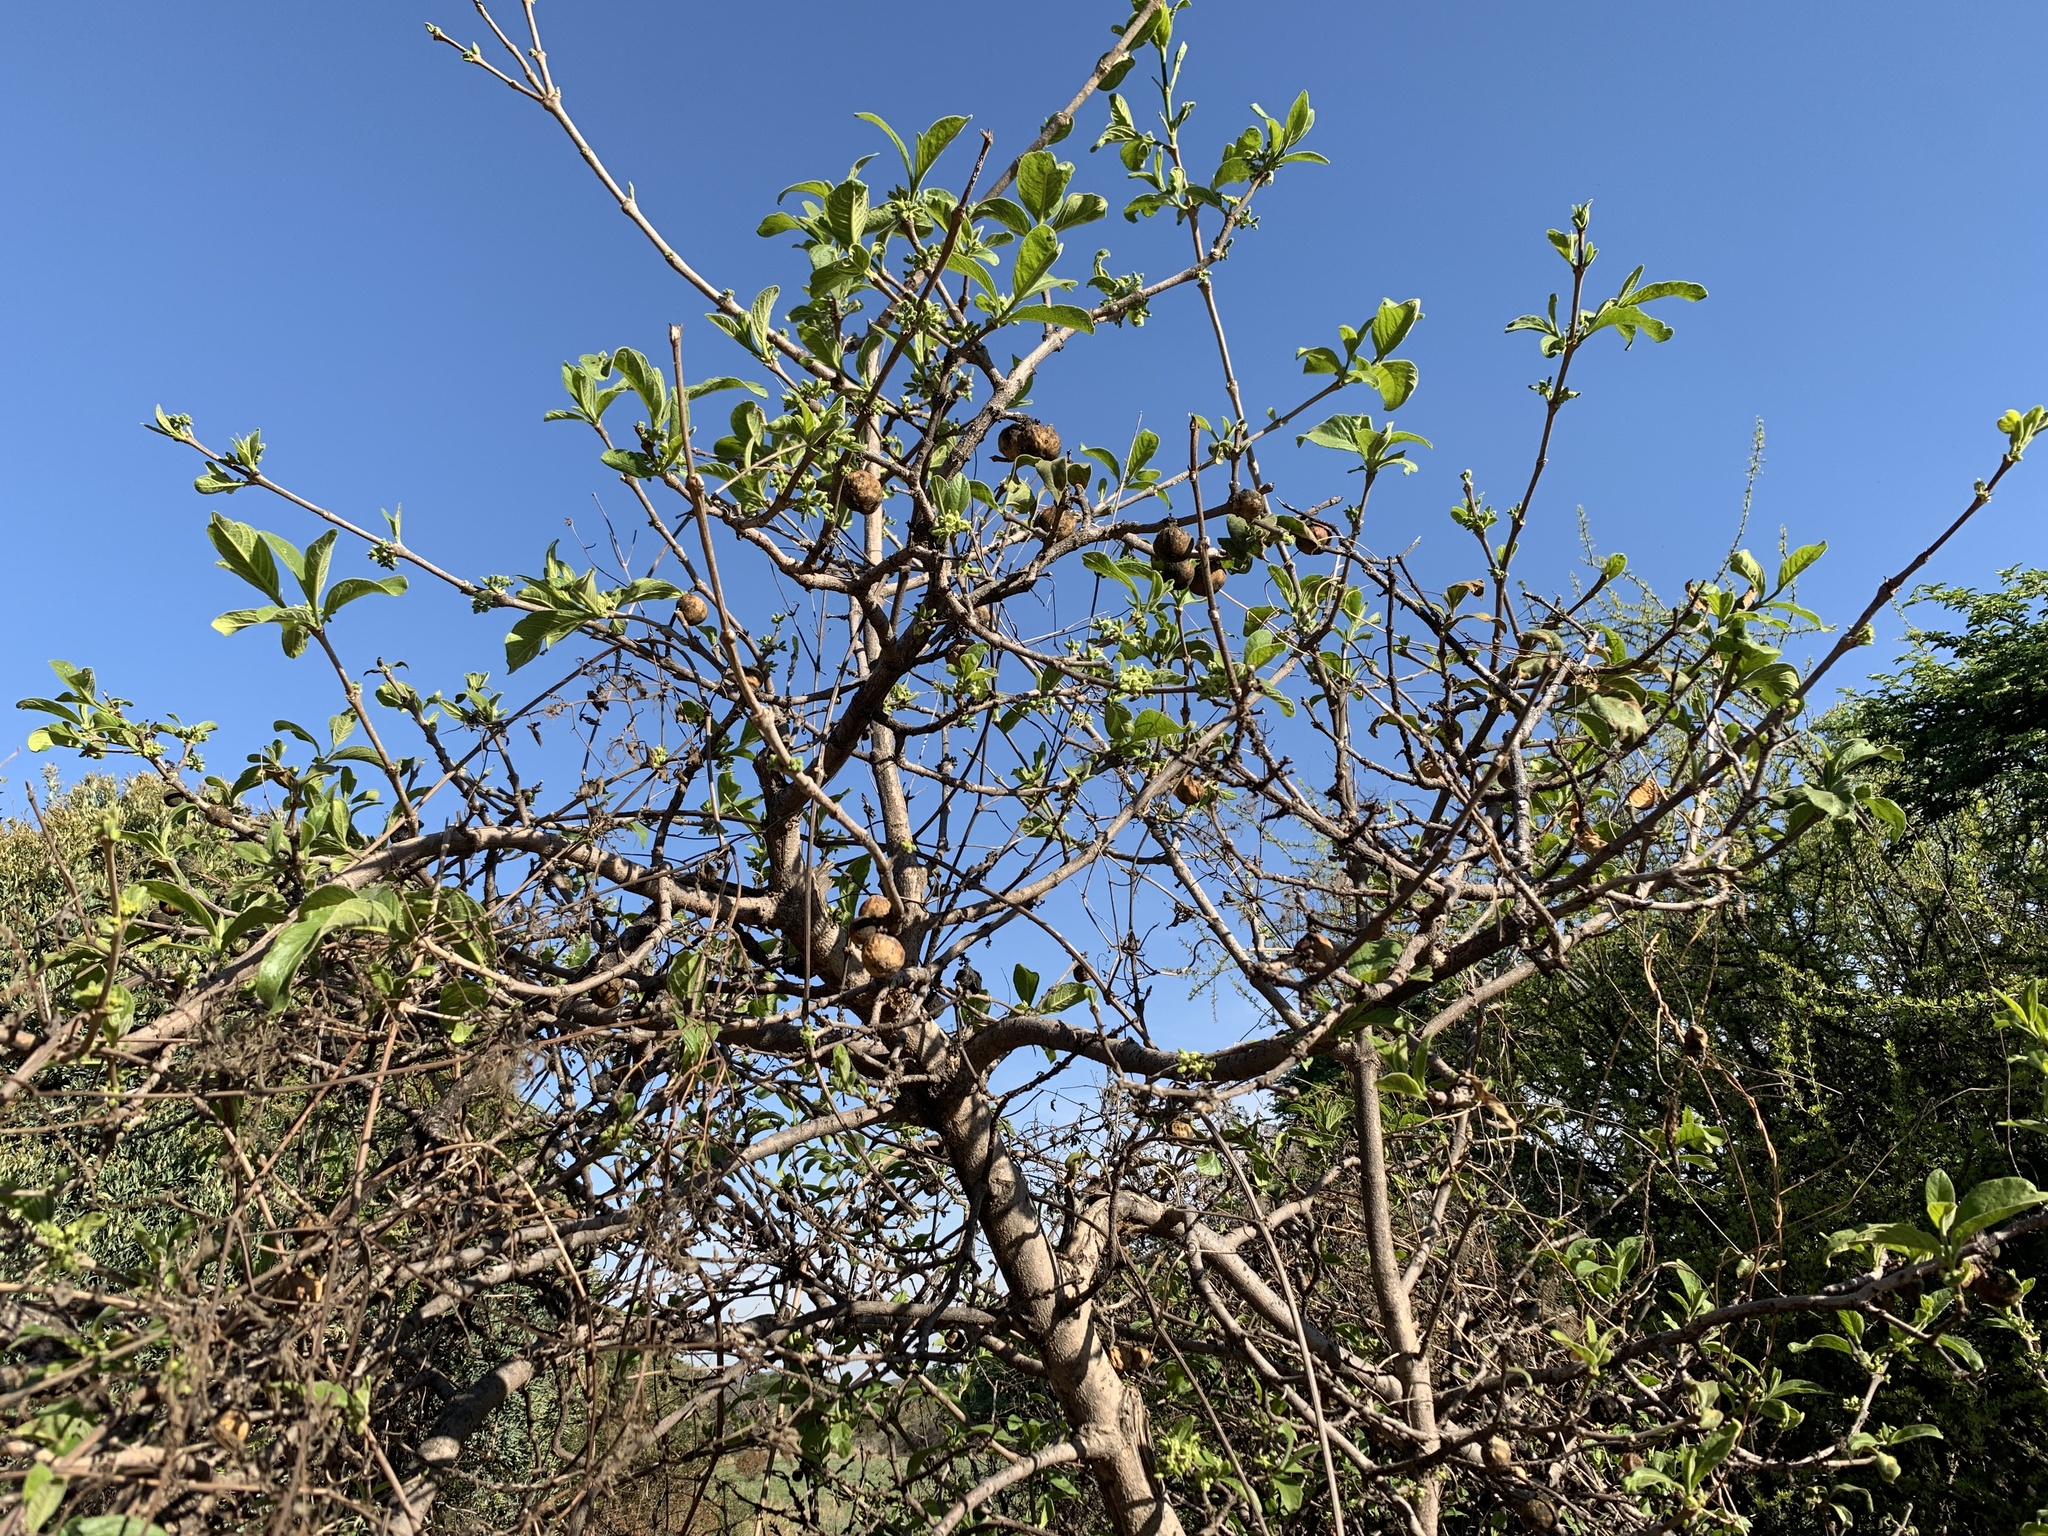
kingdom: Plantae
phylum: Tracheophyta
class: Magnoliopsida
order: Gentianales
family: Rubiaceae
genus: Vangueria
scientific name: Vangueria infausta
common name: Medlar
